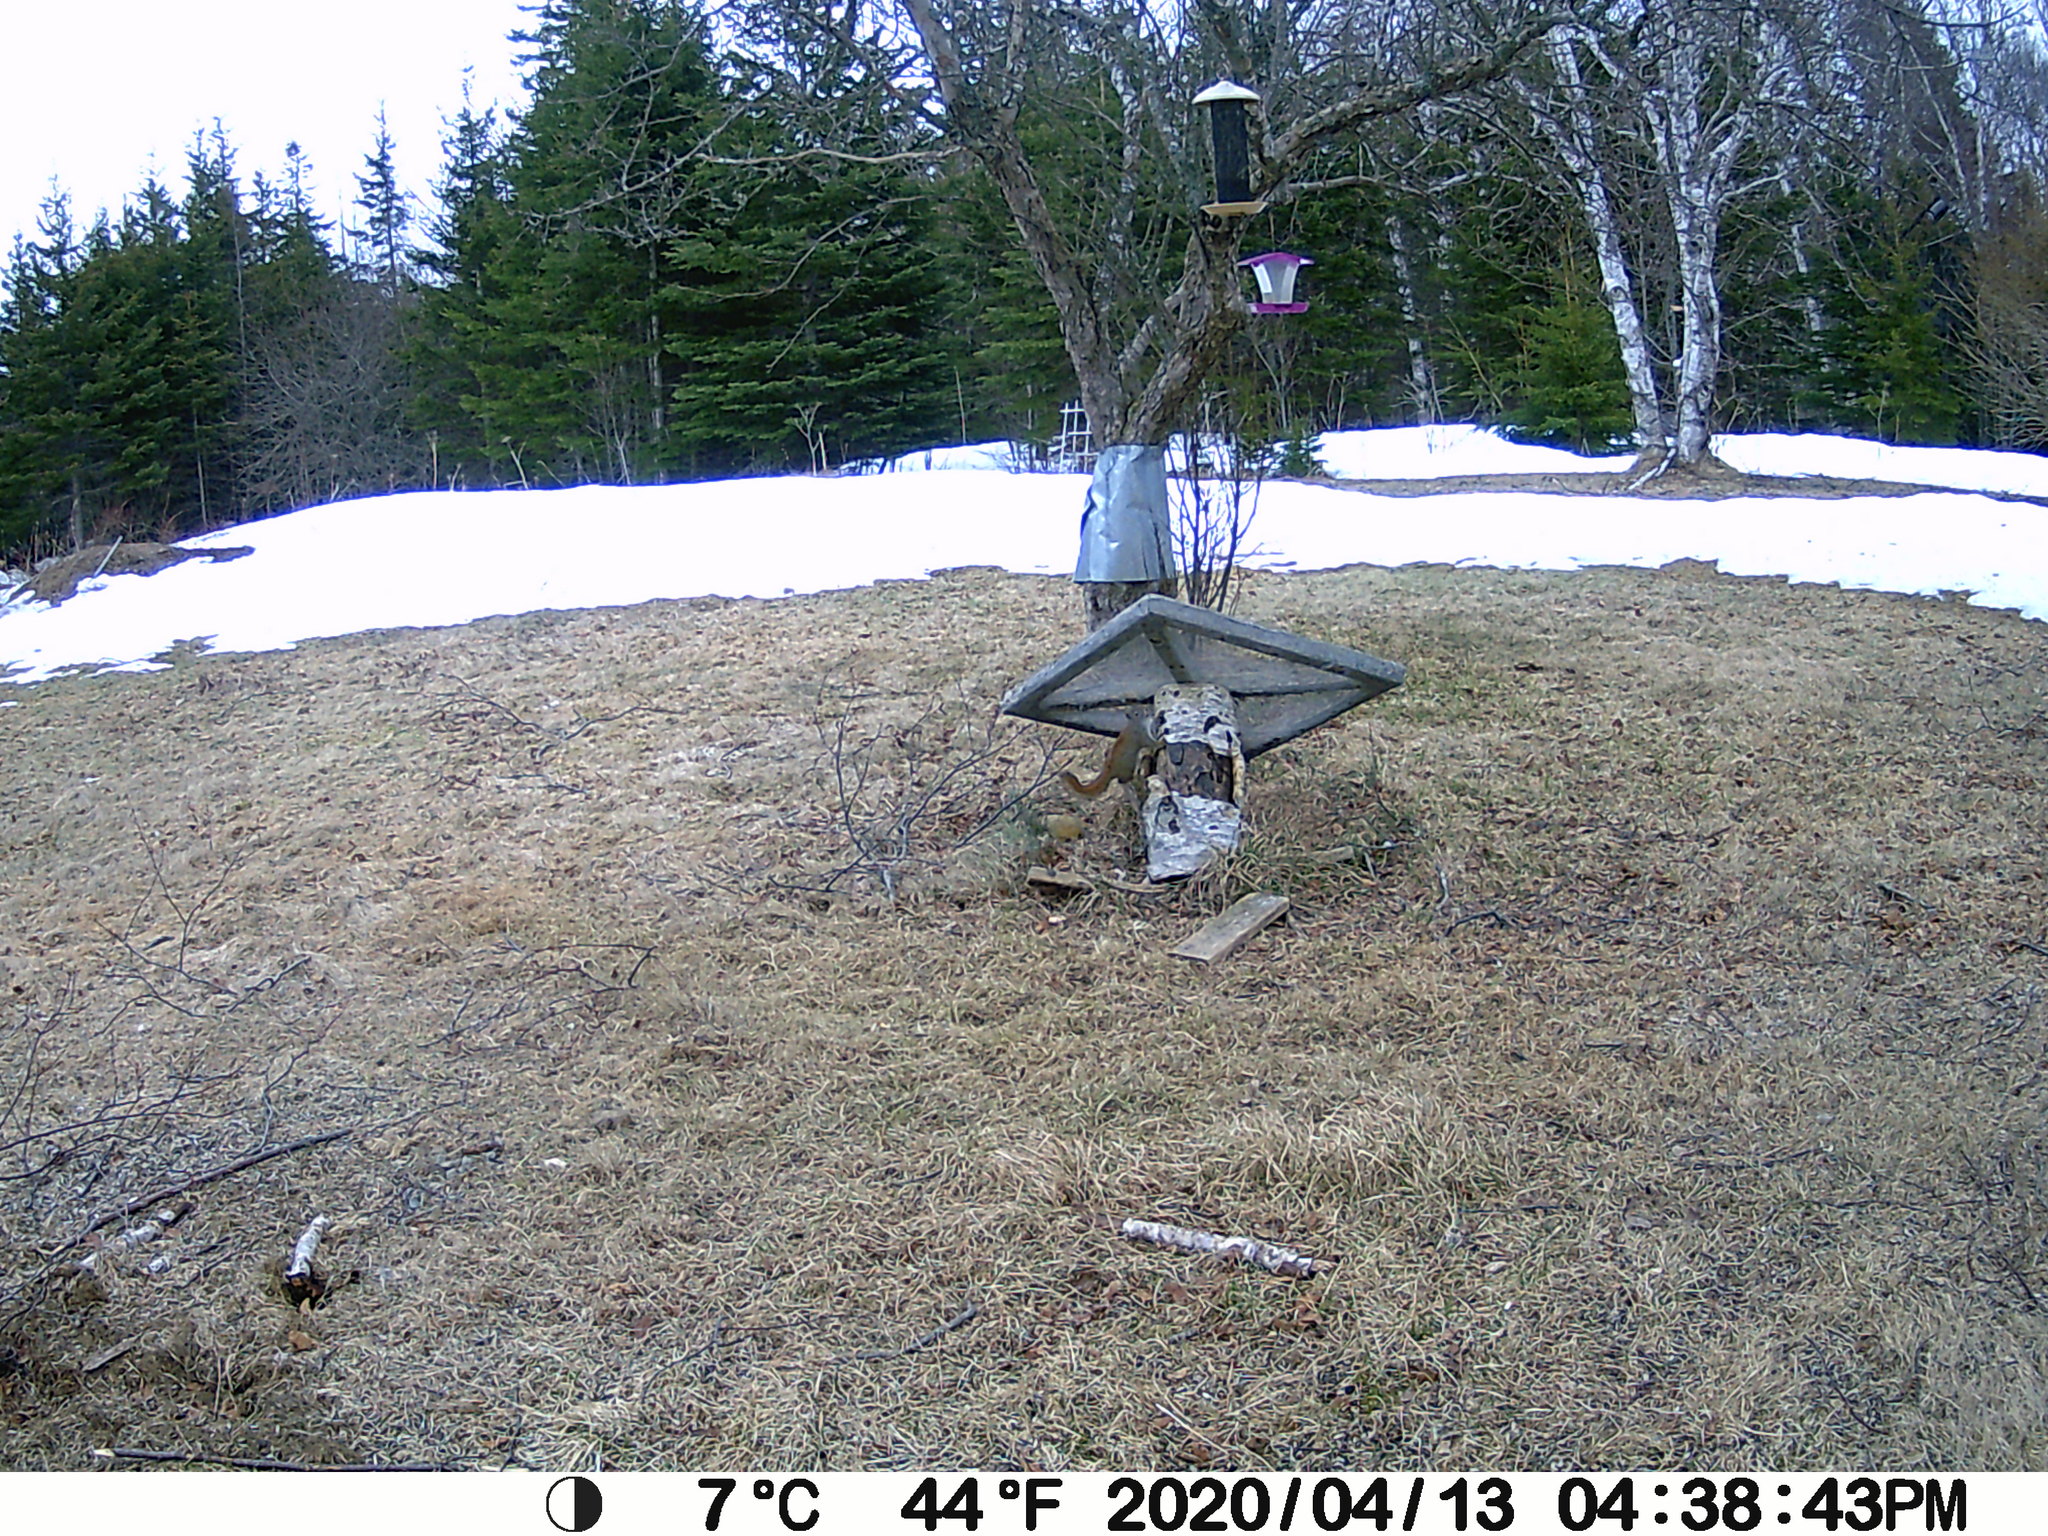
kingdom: Animalia
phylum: Chordata
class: Mammalia
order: Rodentia
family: Sciuridae
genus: Tamiasciurus
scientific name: Tamiasciurus hudsonicus
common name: Red squirrel
